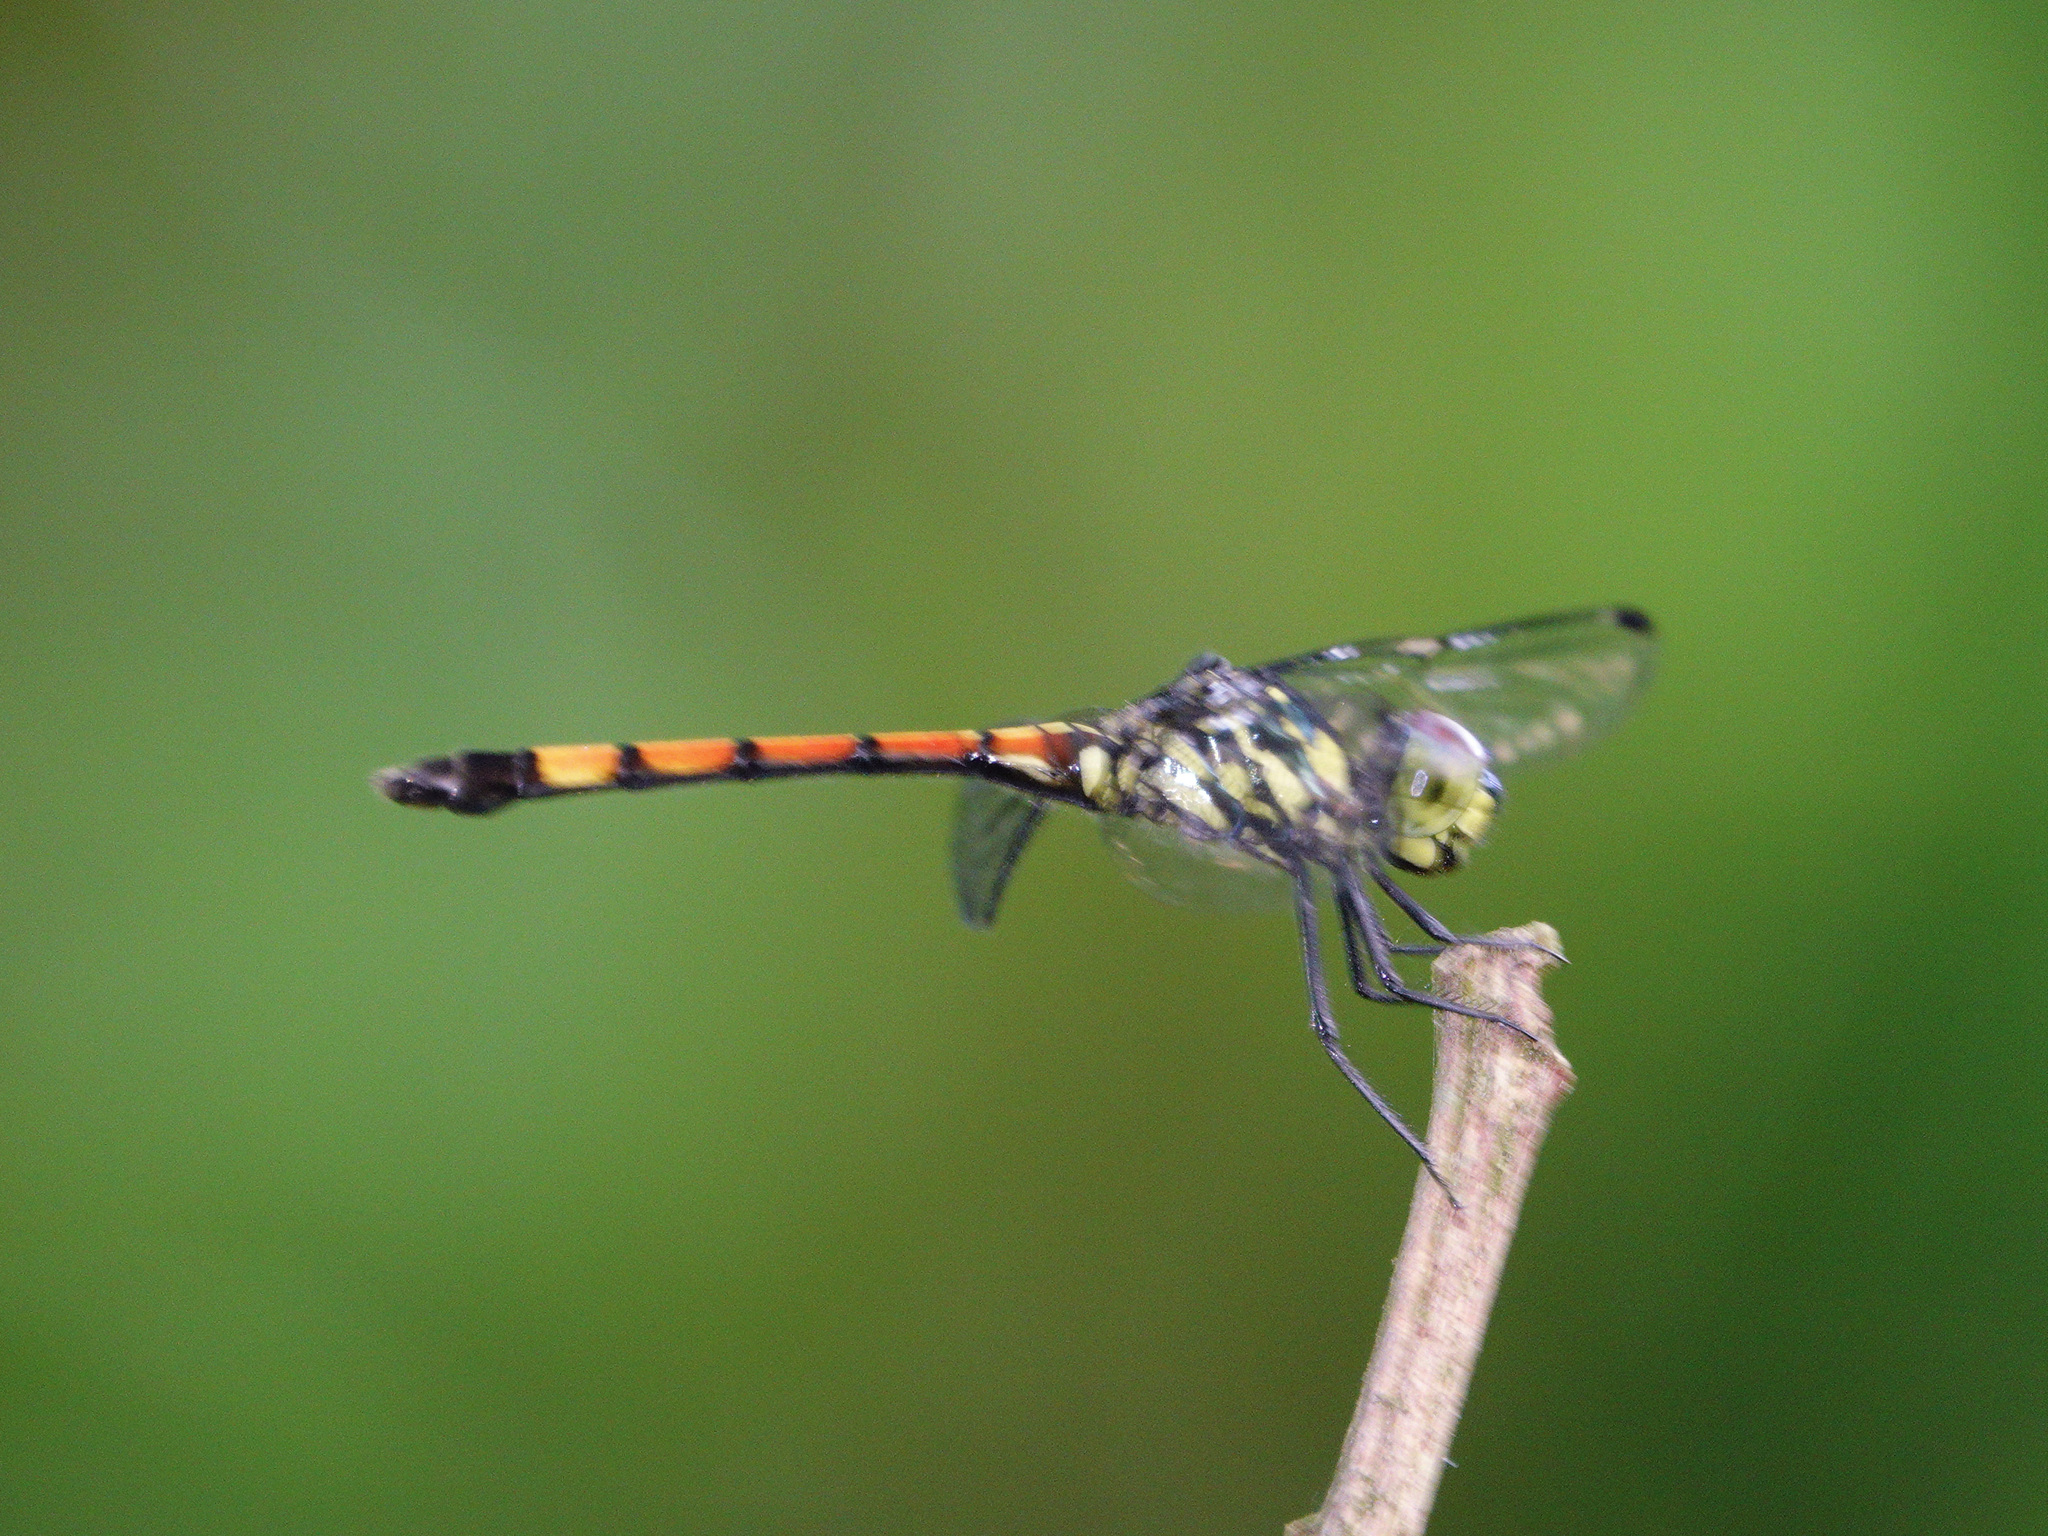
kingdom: Animalia
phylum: Arthropoda
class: Insecta
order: Odonata
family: Libellulidae
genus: Agrionoptera
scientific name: Agrionoptera insignis
